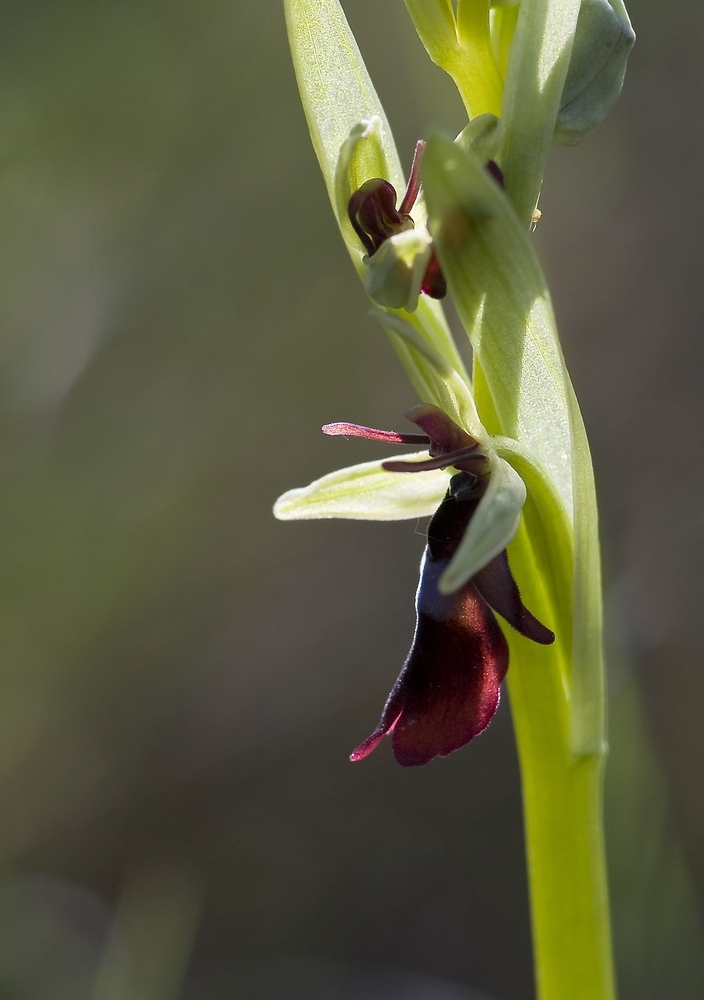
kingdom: Plantae
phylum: Tracheophyta
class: Liliopsida
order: Asparagales
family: Orchidaceae
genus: Ophrys
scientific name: Ophrys insectifera
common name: Fly orchid
